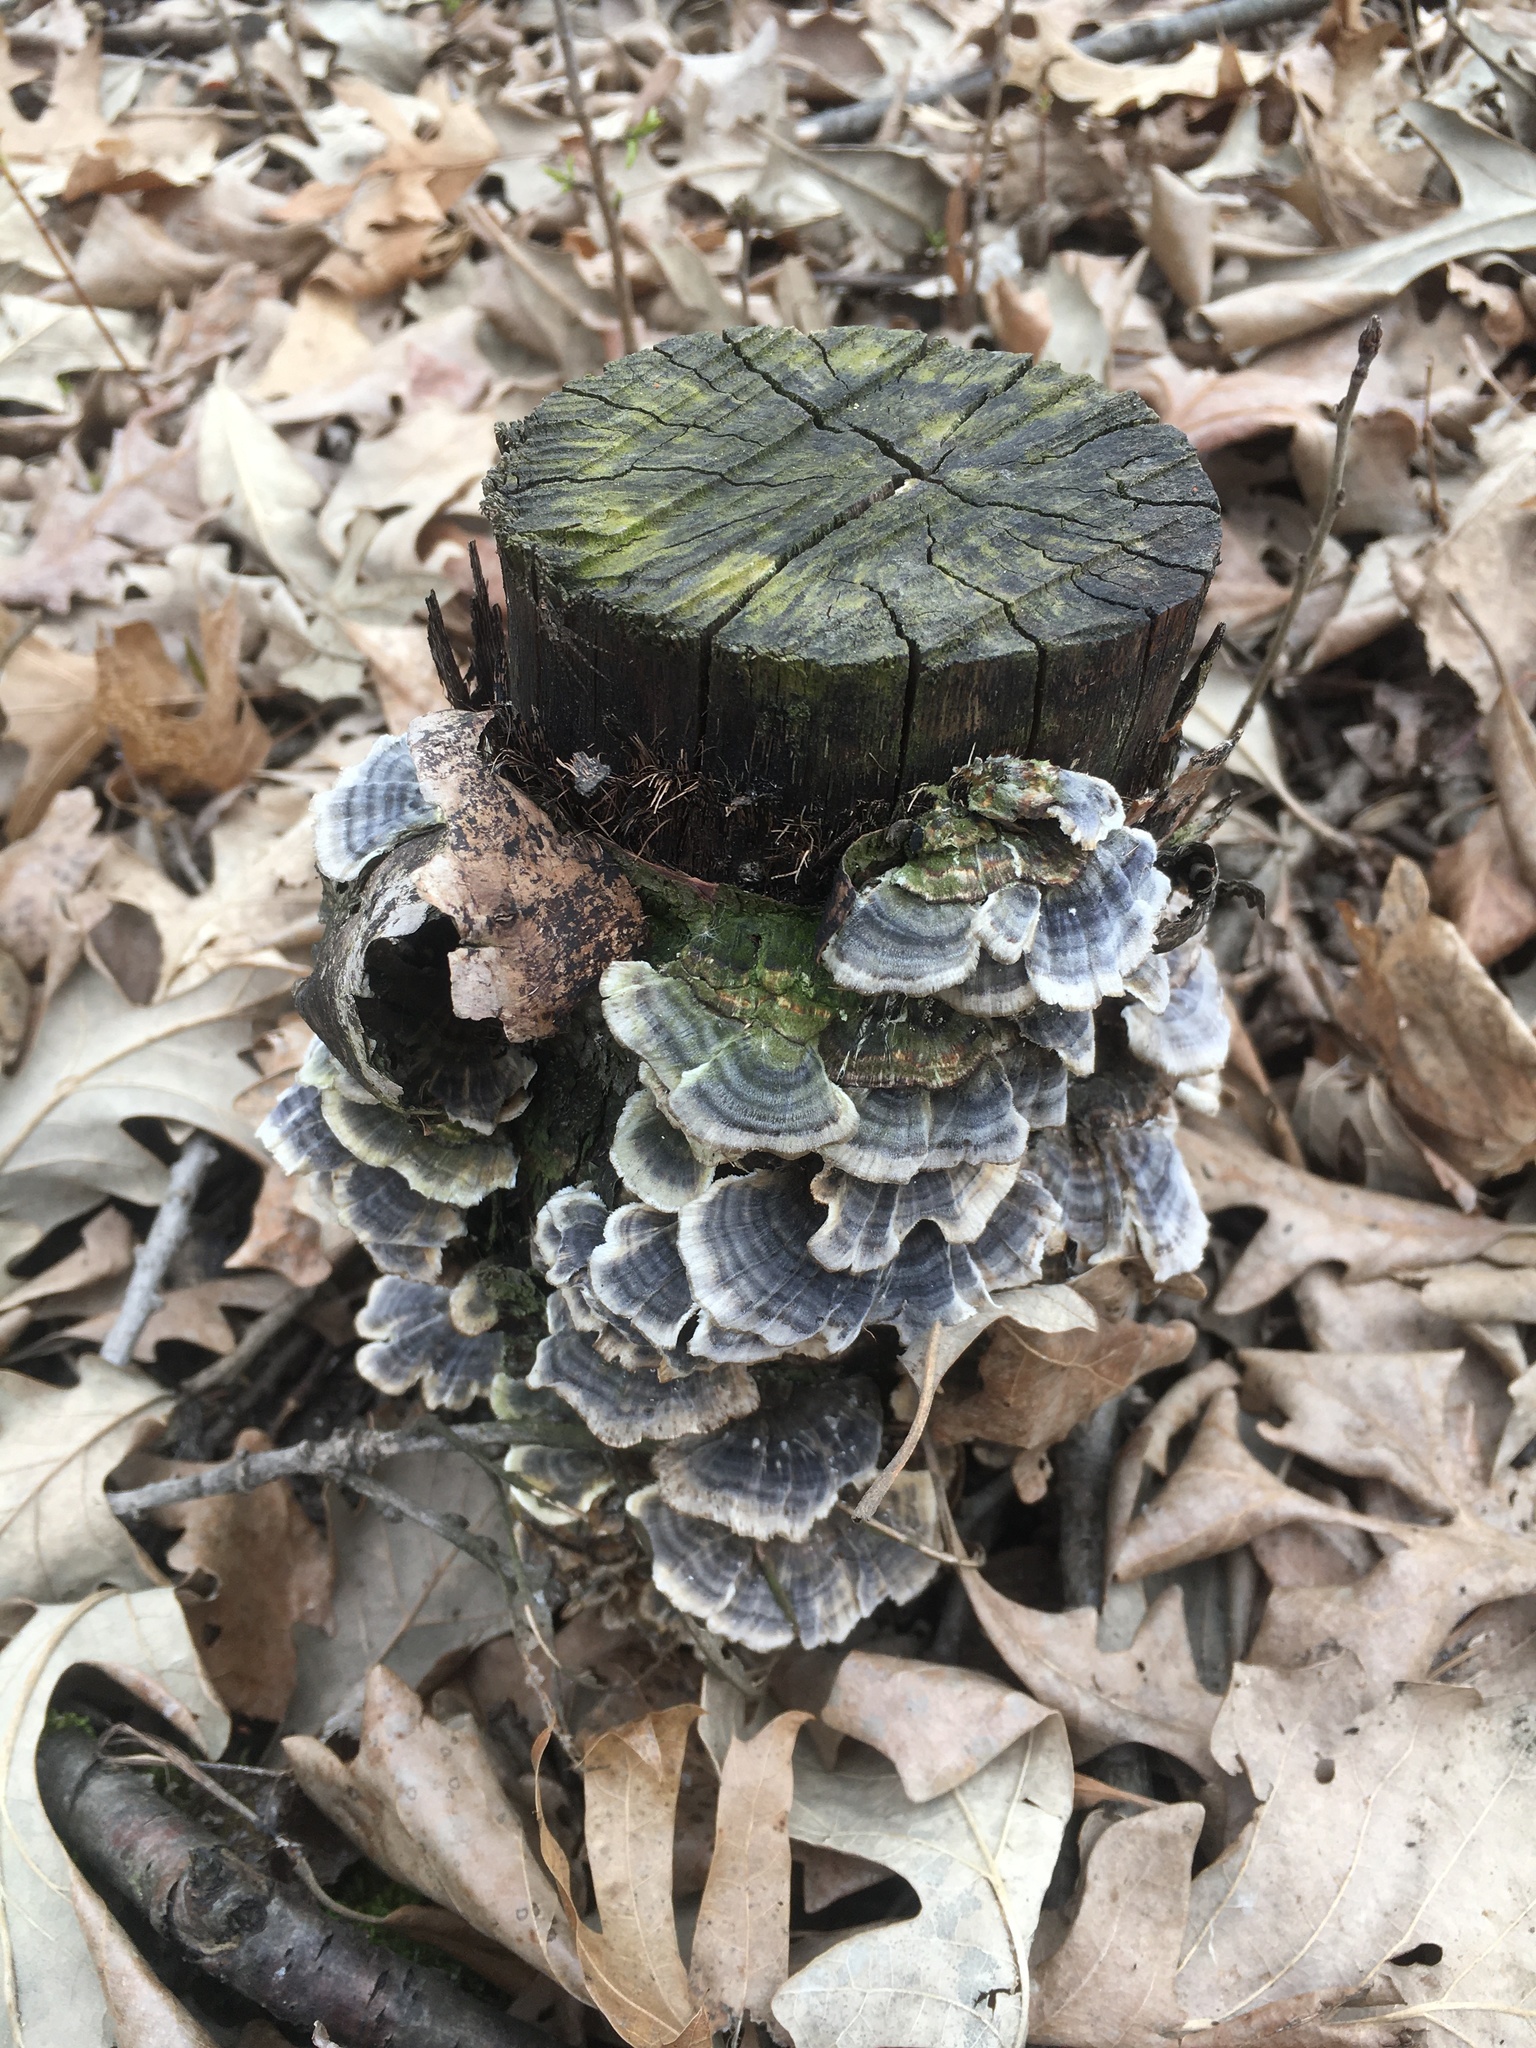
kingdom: Fungi
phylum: Basidiomycota
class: Agaricomycetes
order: Polyporales
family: Polyporaceae
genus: Trametes
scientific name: Trametes versicolor
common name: Turkeytail
